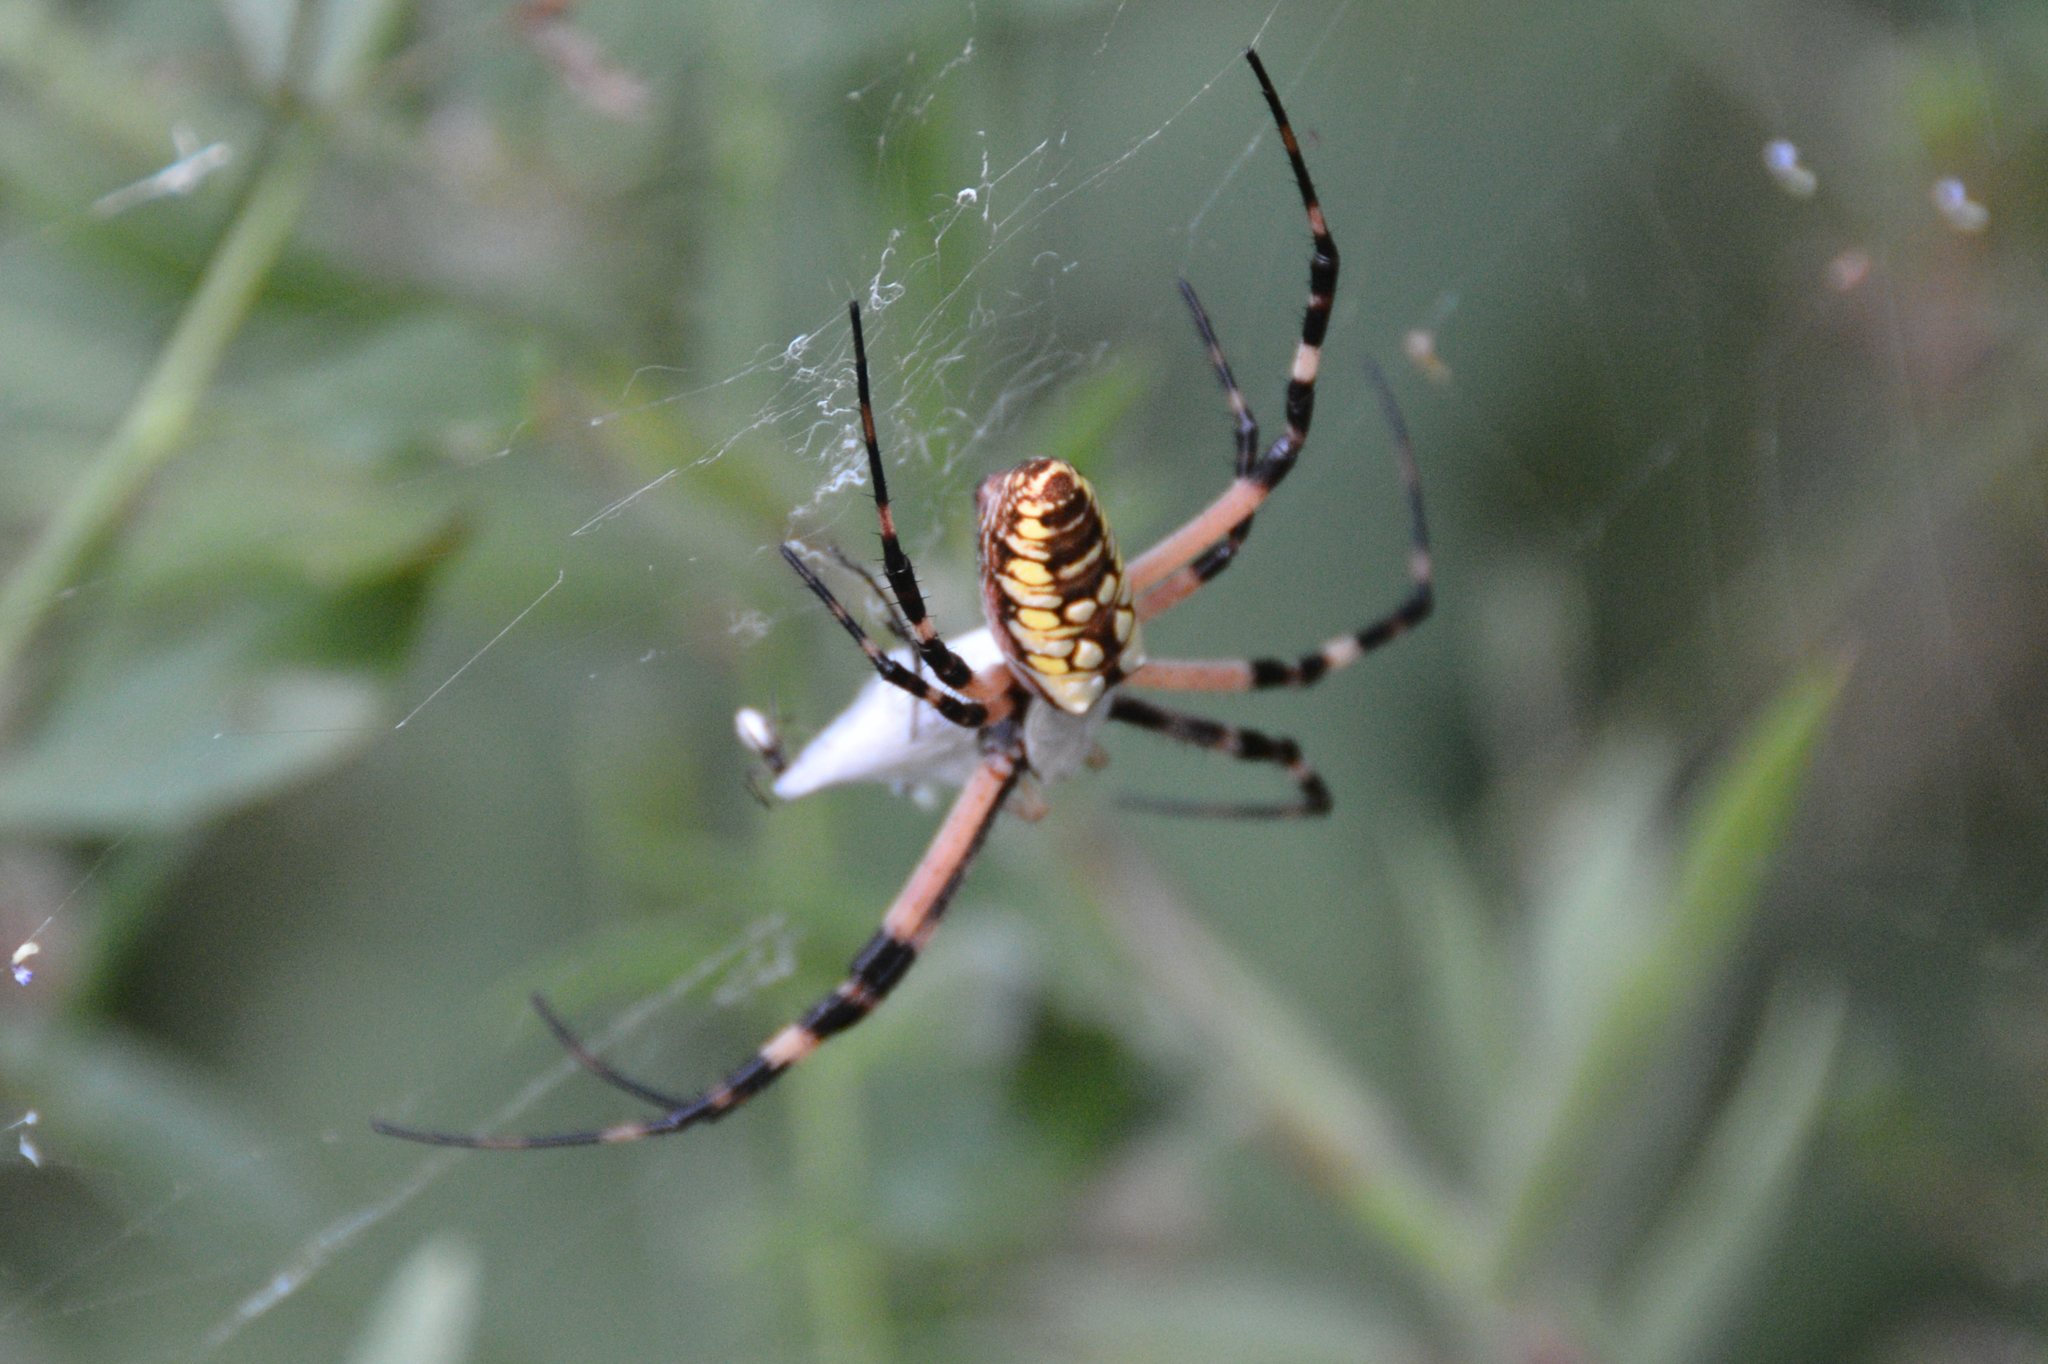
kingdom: Animalia
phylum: Arthropoda
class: Arachnida
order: Araneae
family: Araneidae
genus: Argiope
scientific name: Argiope aurantia
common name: Orb weavers
